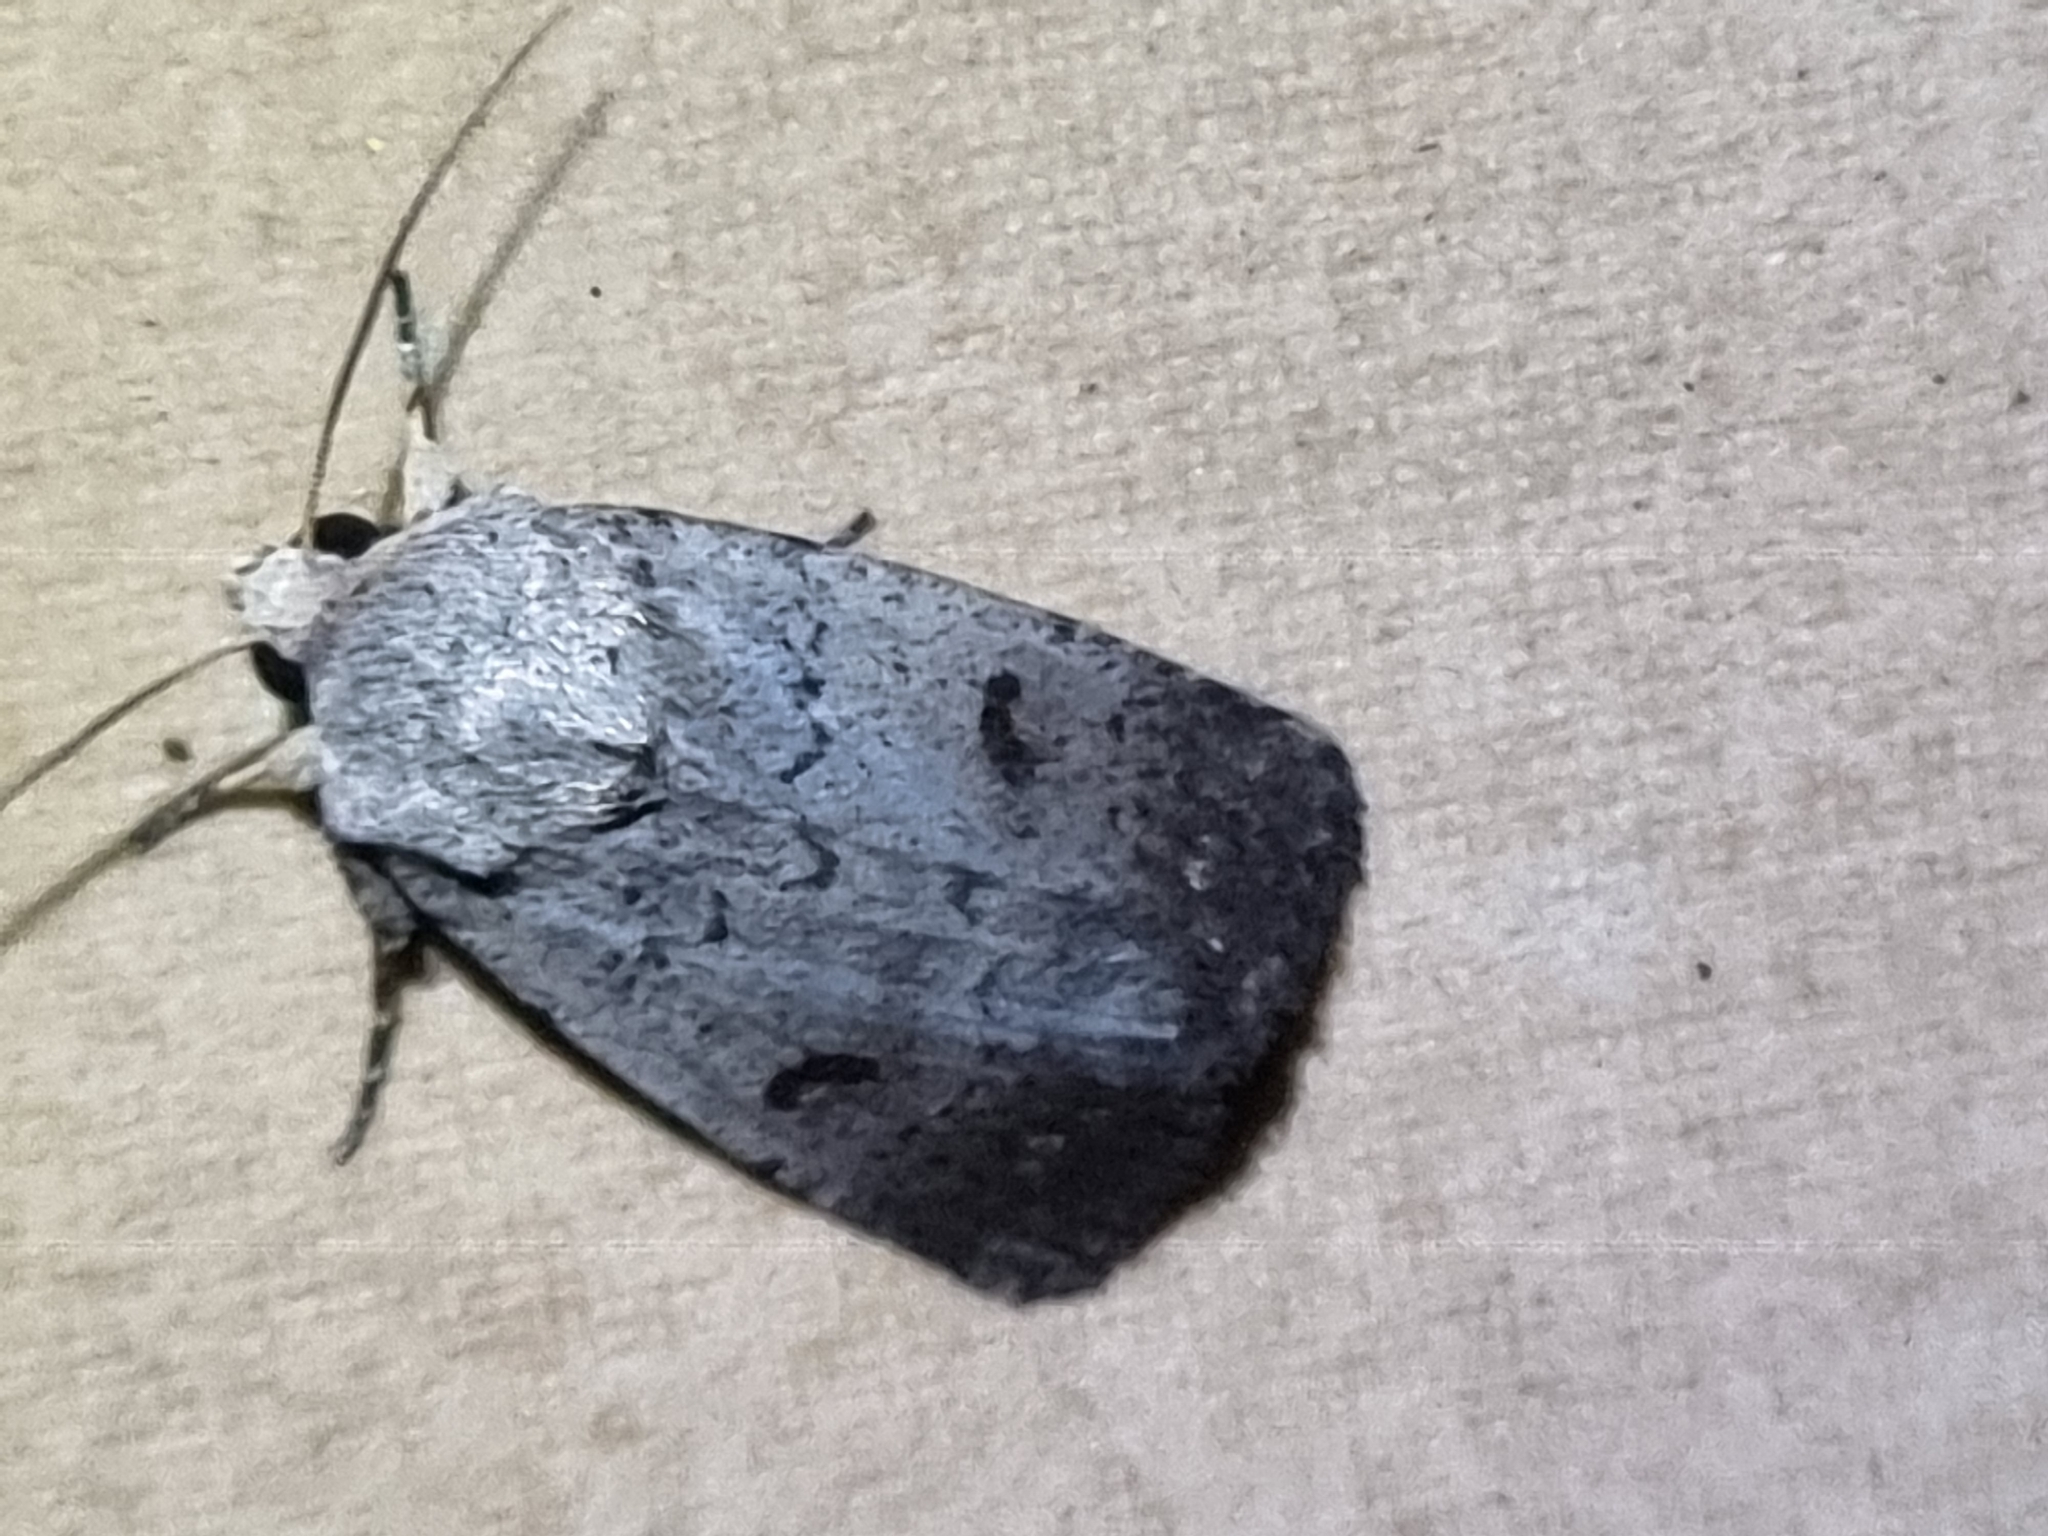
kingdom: Animalia
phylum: Arthropoda
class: Insecta
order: Lepidoptera
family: Noctuidae
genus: Proteuxoa
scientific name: Proteuxoa tibiata
